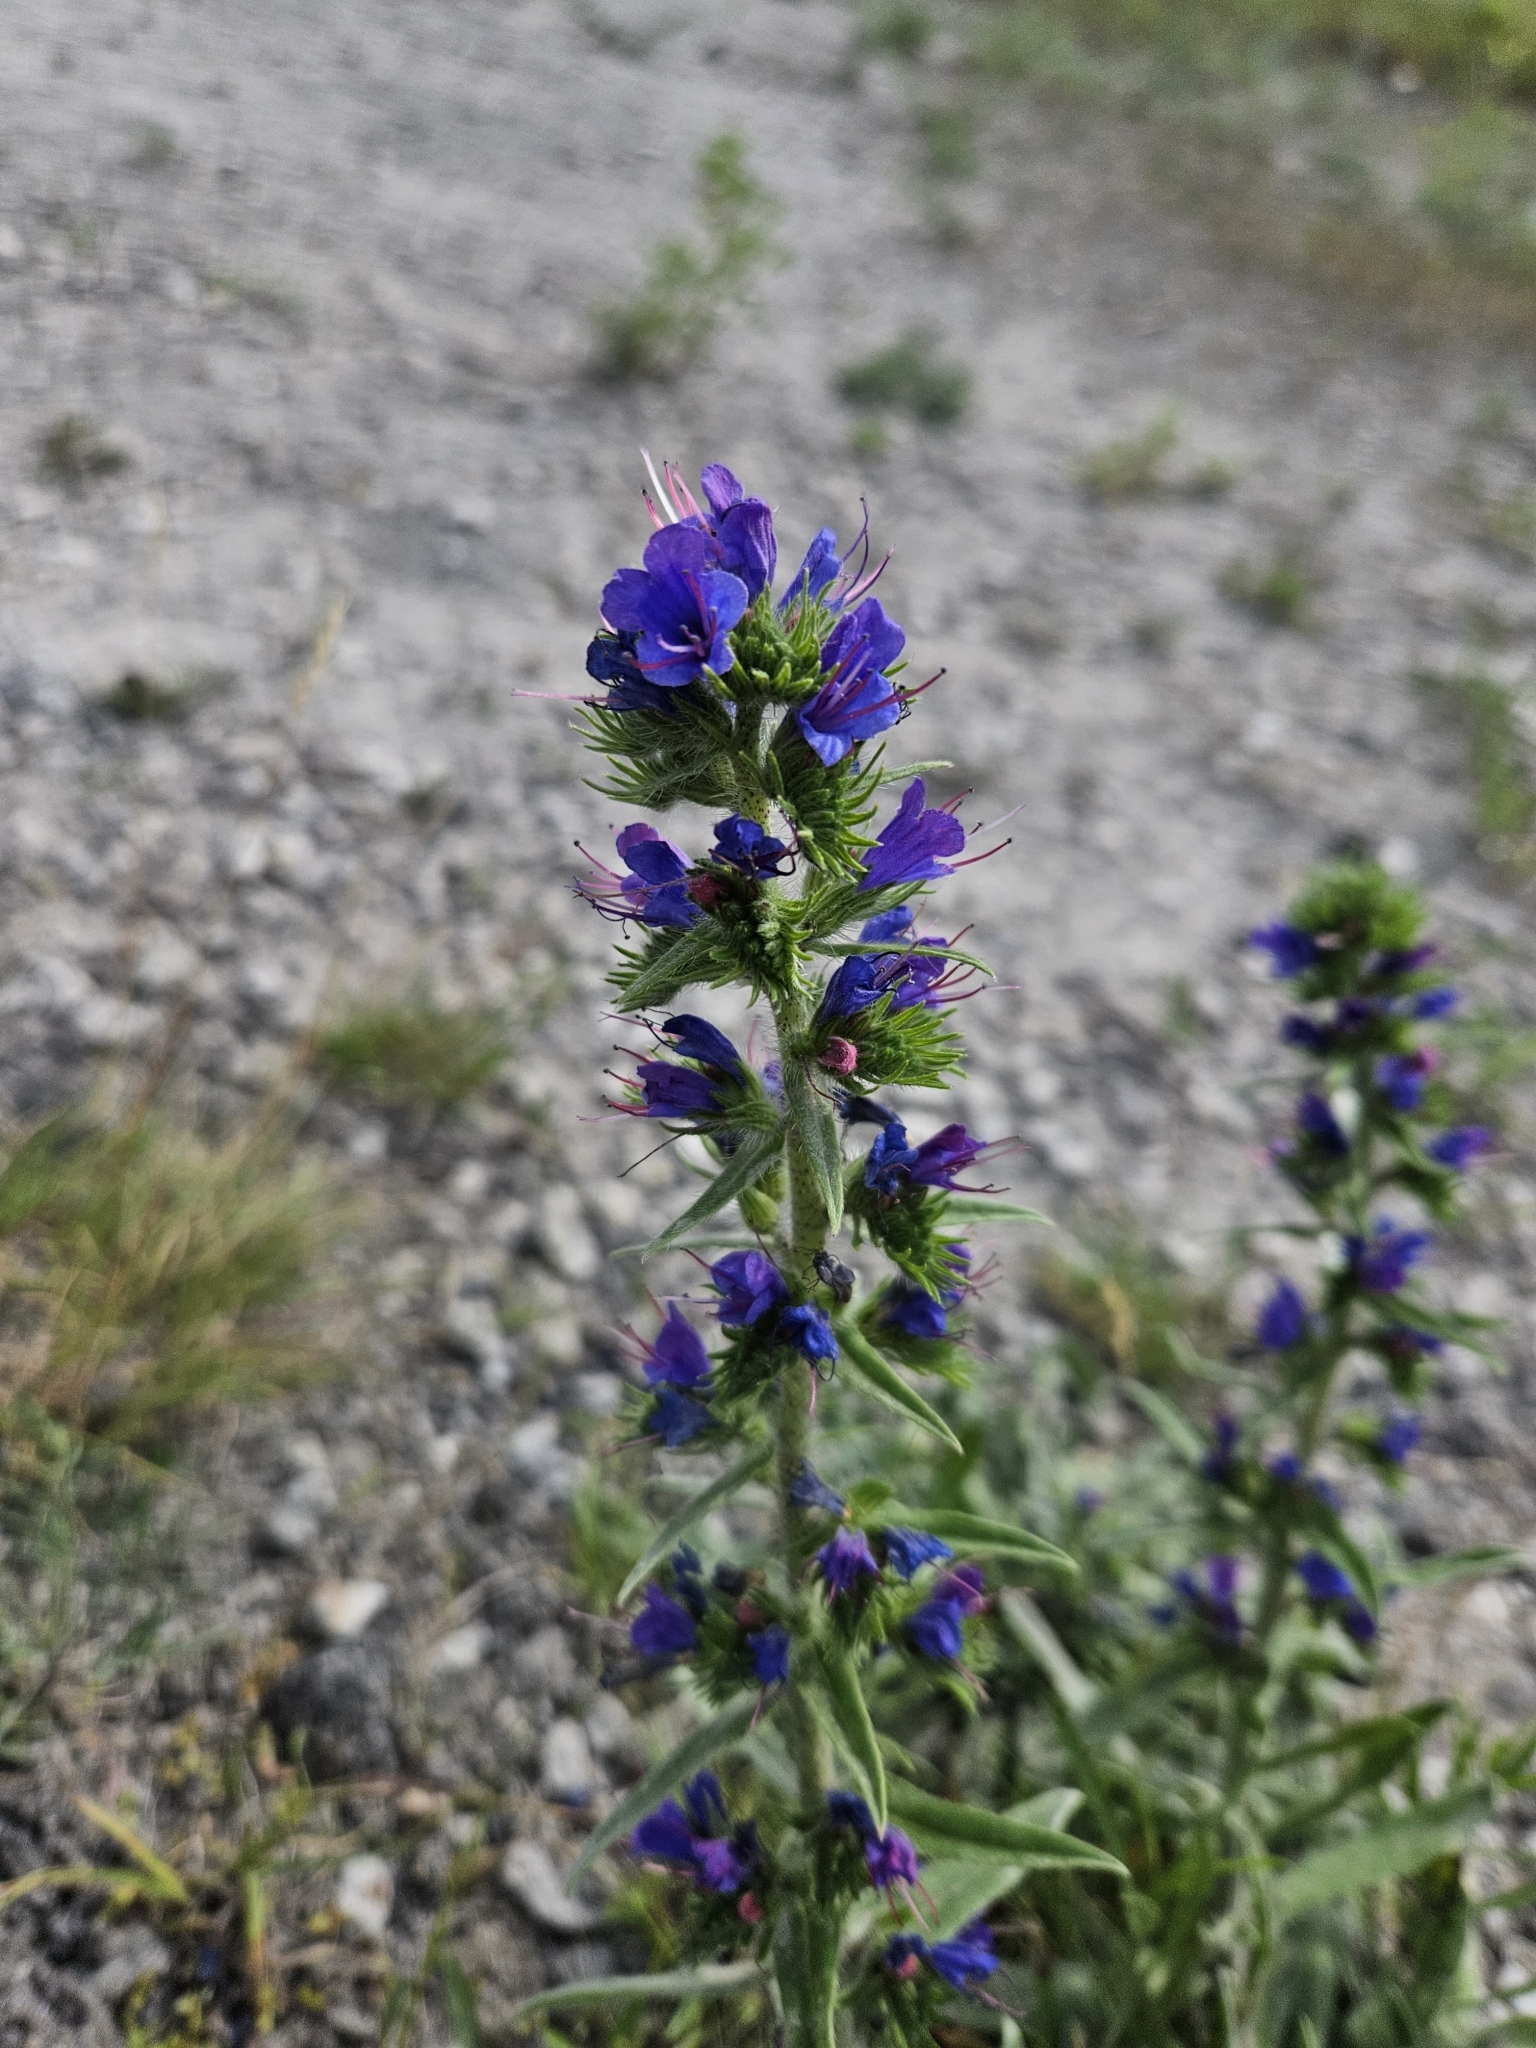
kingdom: Plantae
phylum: Tracheophyta
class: Magnoliopsida
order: Boraginales
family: Boraginaceae
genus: Echium
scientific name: Echium vulgare
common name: Common viper's bugloss
